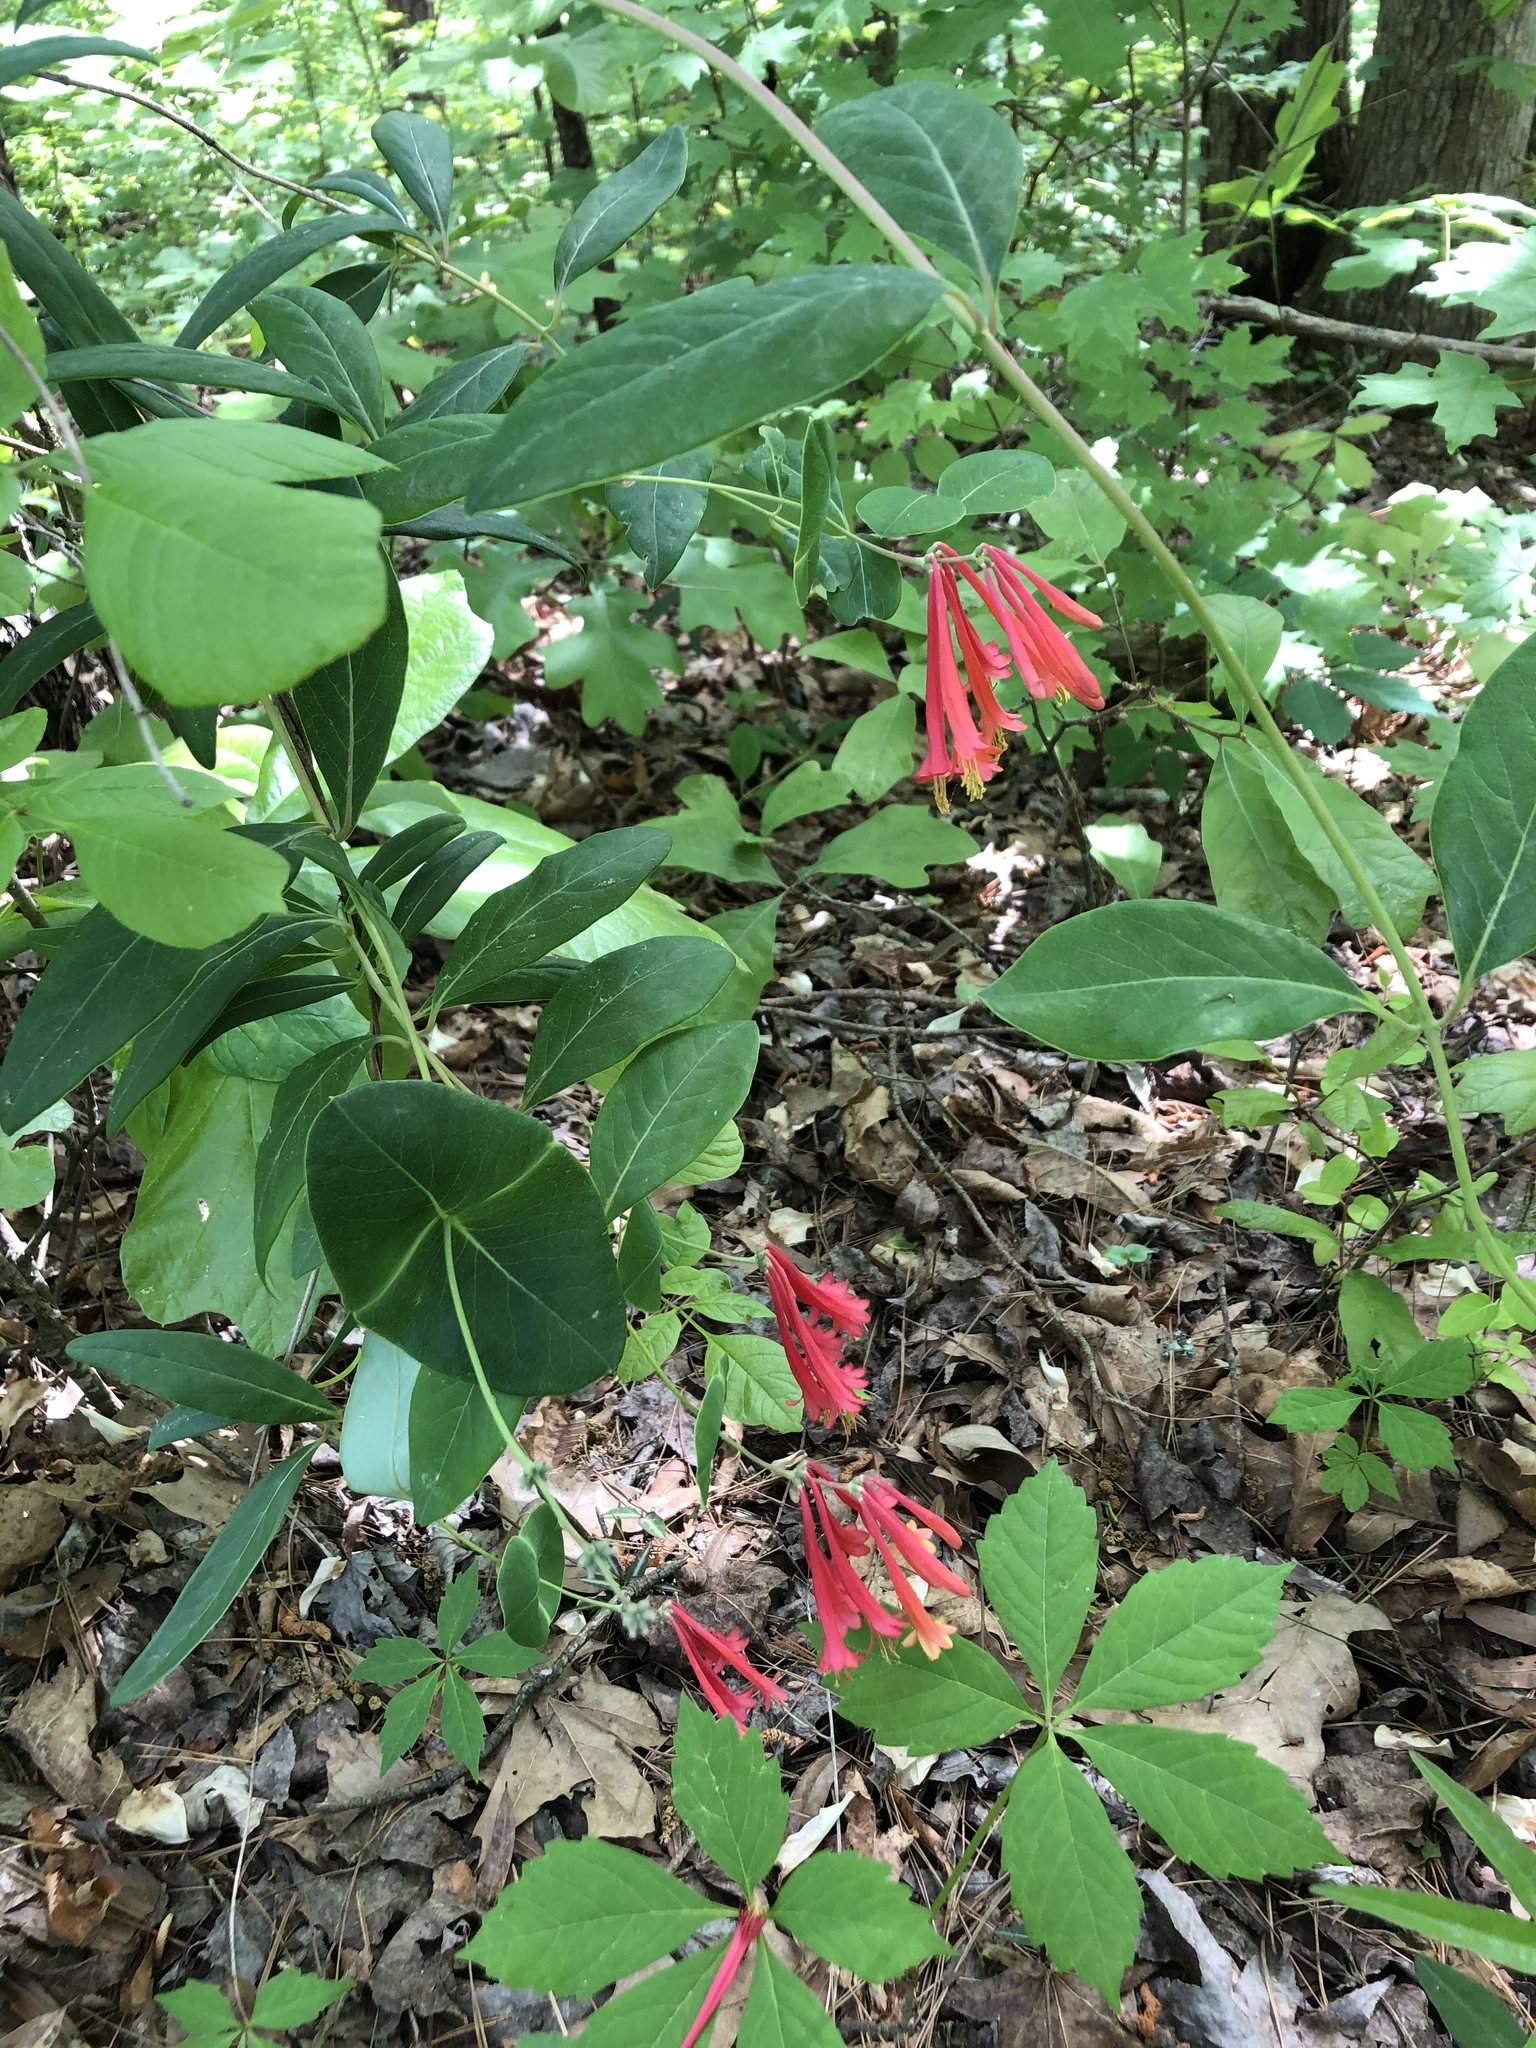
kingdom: Plantae
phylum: Tracheophyta
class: Magnoliopsida
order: Dipsacales
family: Caprifoliaceae
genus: Lonicera
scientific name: Lonicera sempervirens
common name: Coral honeysuckle
